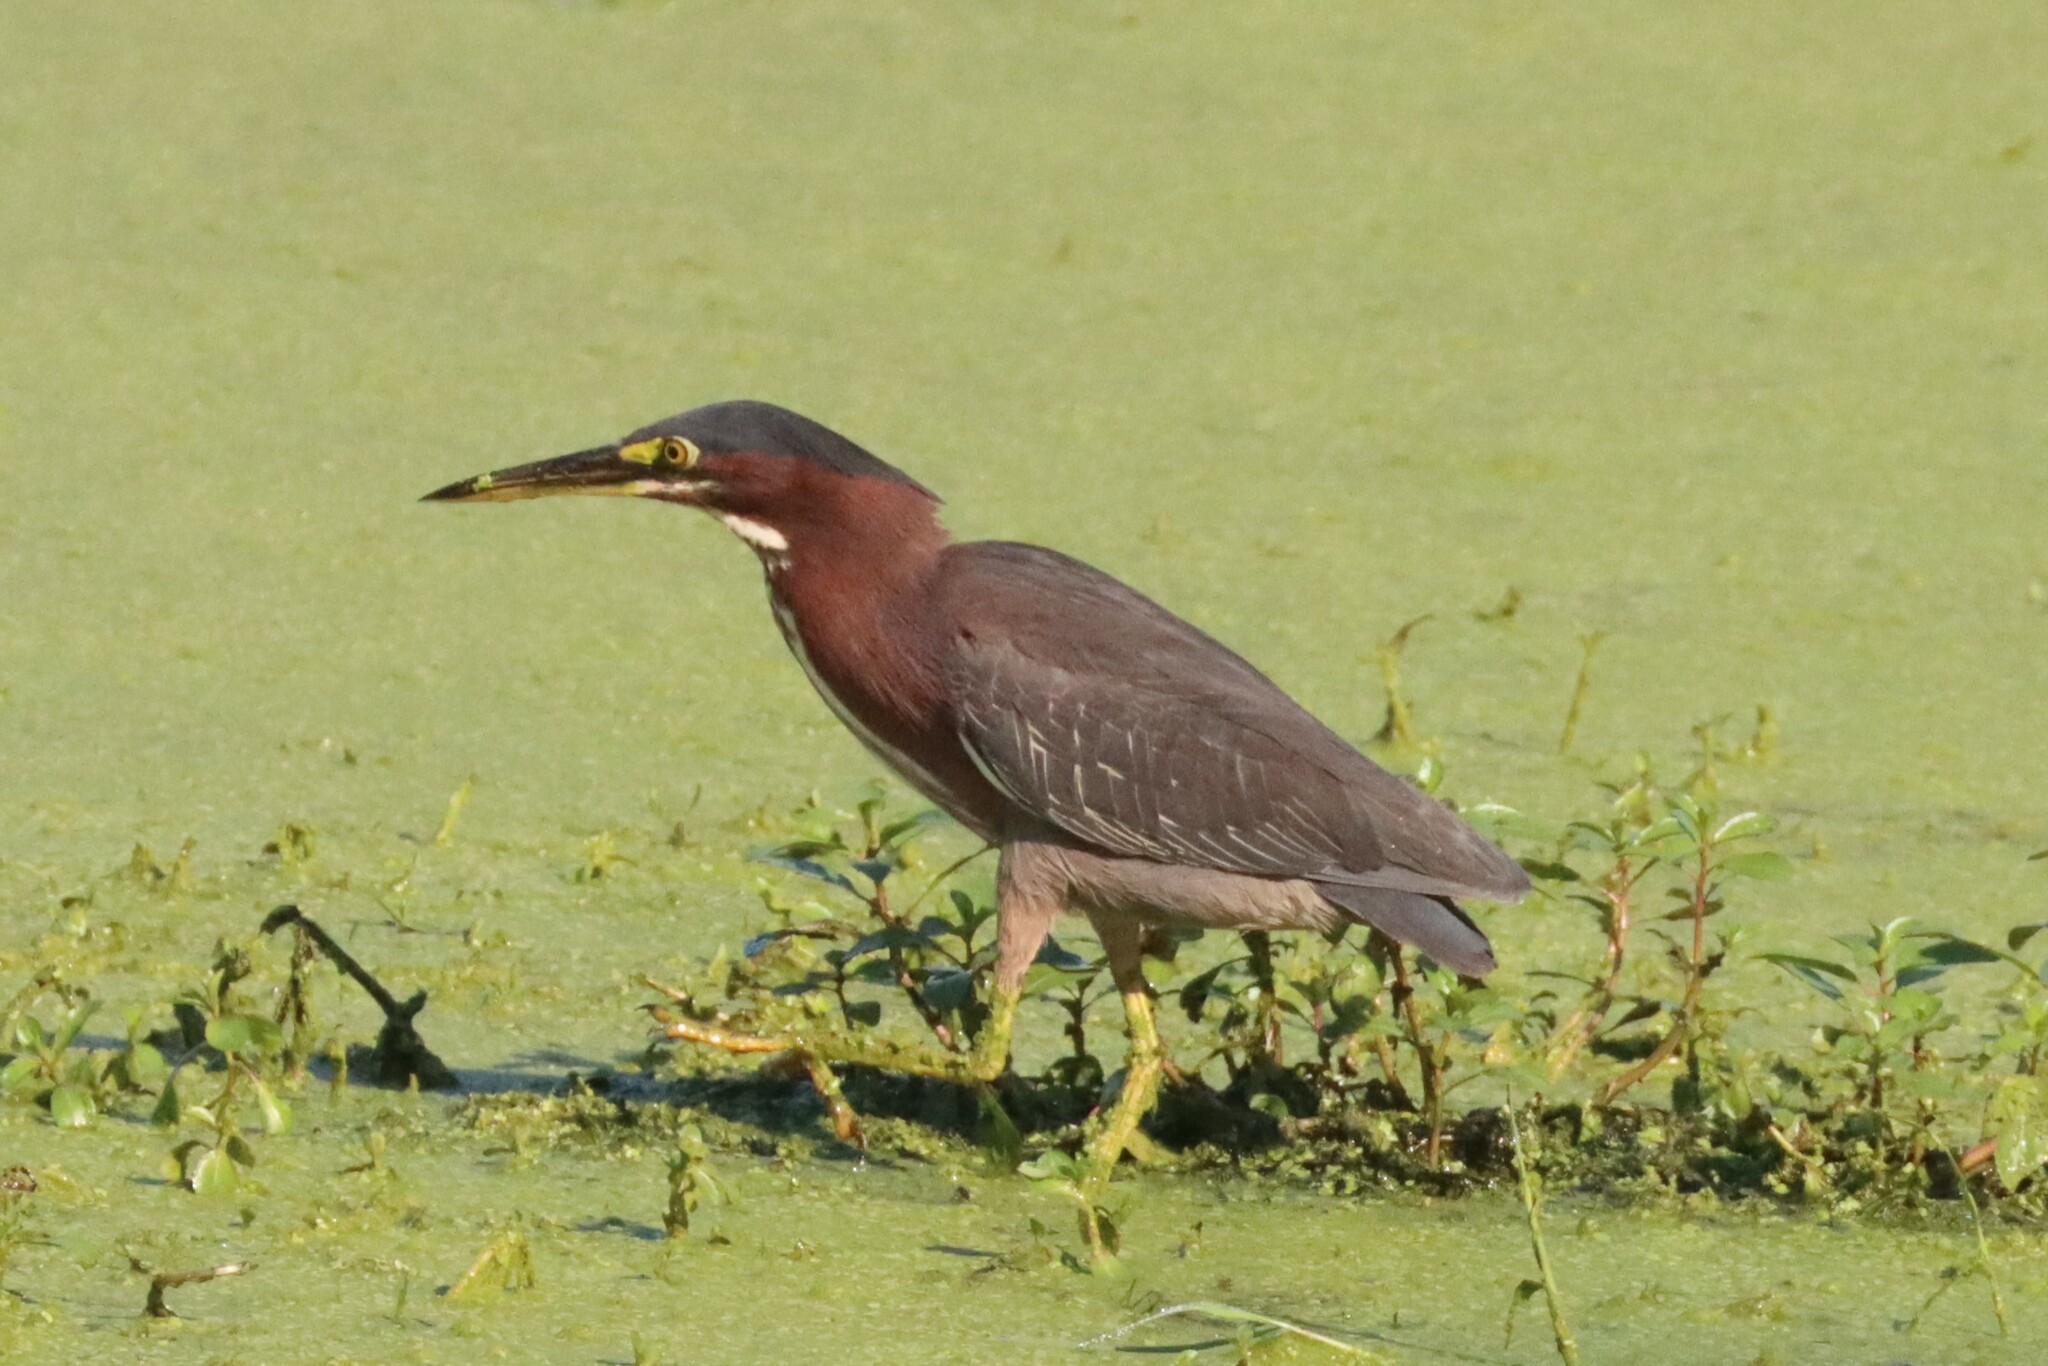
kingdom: Animalia
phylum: Chordata
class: Aves
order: Pelecaniformes
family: Ardeidae
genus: Butorides
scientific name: Butorides virescens
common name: Green heron
